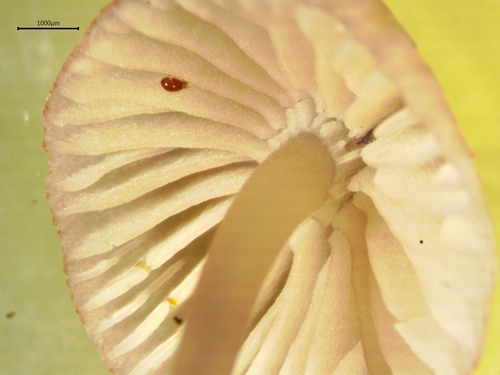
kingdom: Fungi
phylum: Basidiomycota
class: Agaricomycetes
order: Agaricales
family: Mycenaceae
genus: Mycena
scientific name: Mycena rubromarginata
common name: Red edge bonnet
